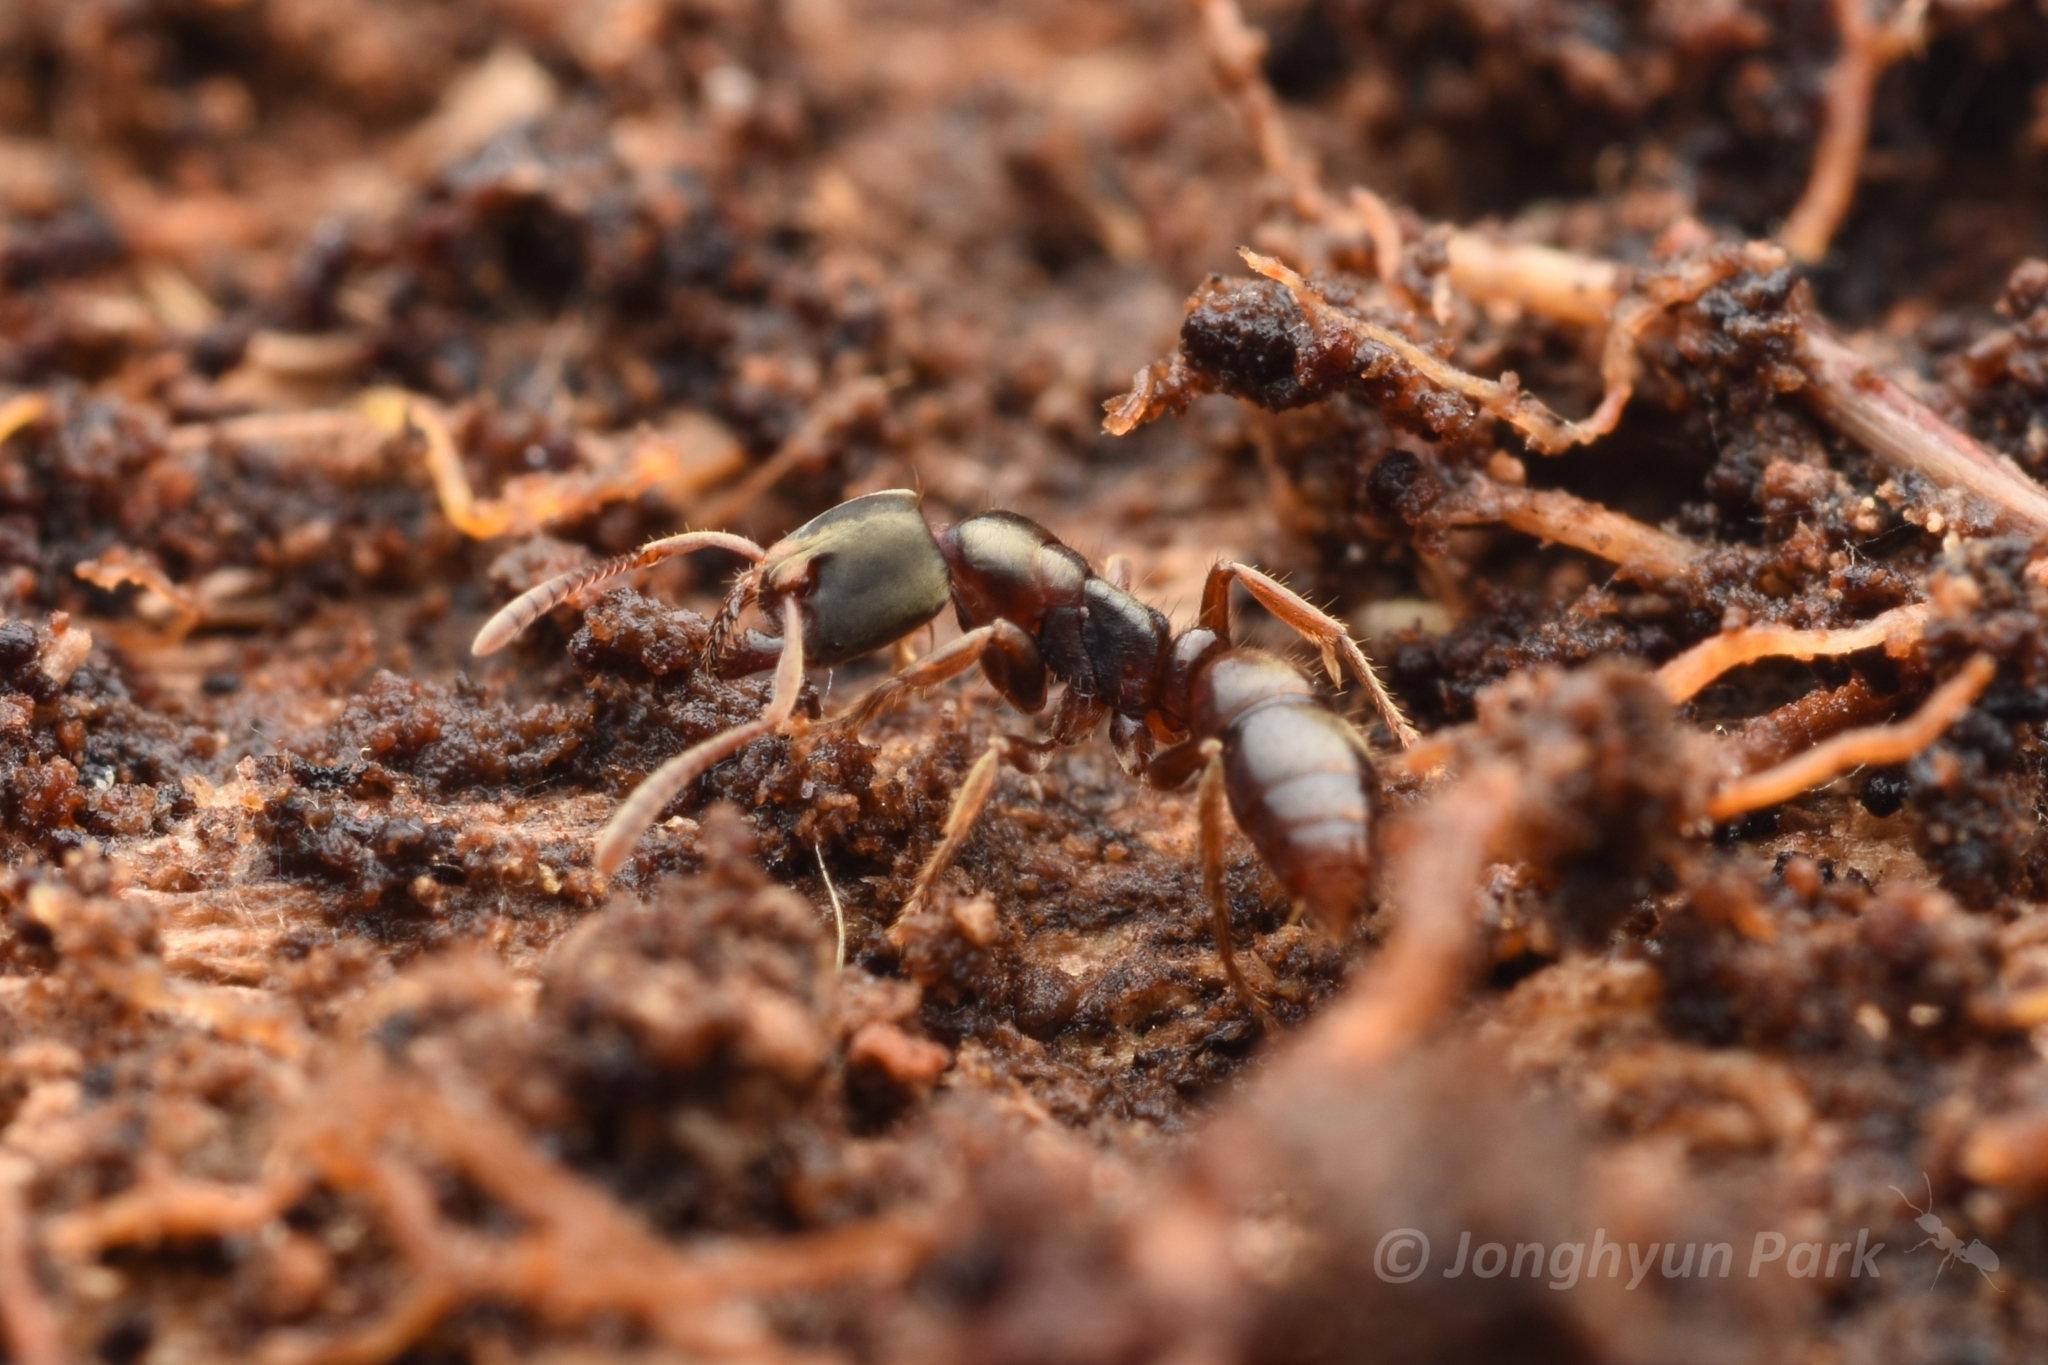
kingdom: Animalia
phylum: Arthropoda
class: Insecta
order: Hymenoptera
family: Formicidae
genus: Pachycondyla
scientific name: Pachycondyla stigma
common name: Pantropical panther ant
